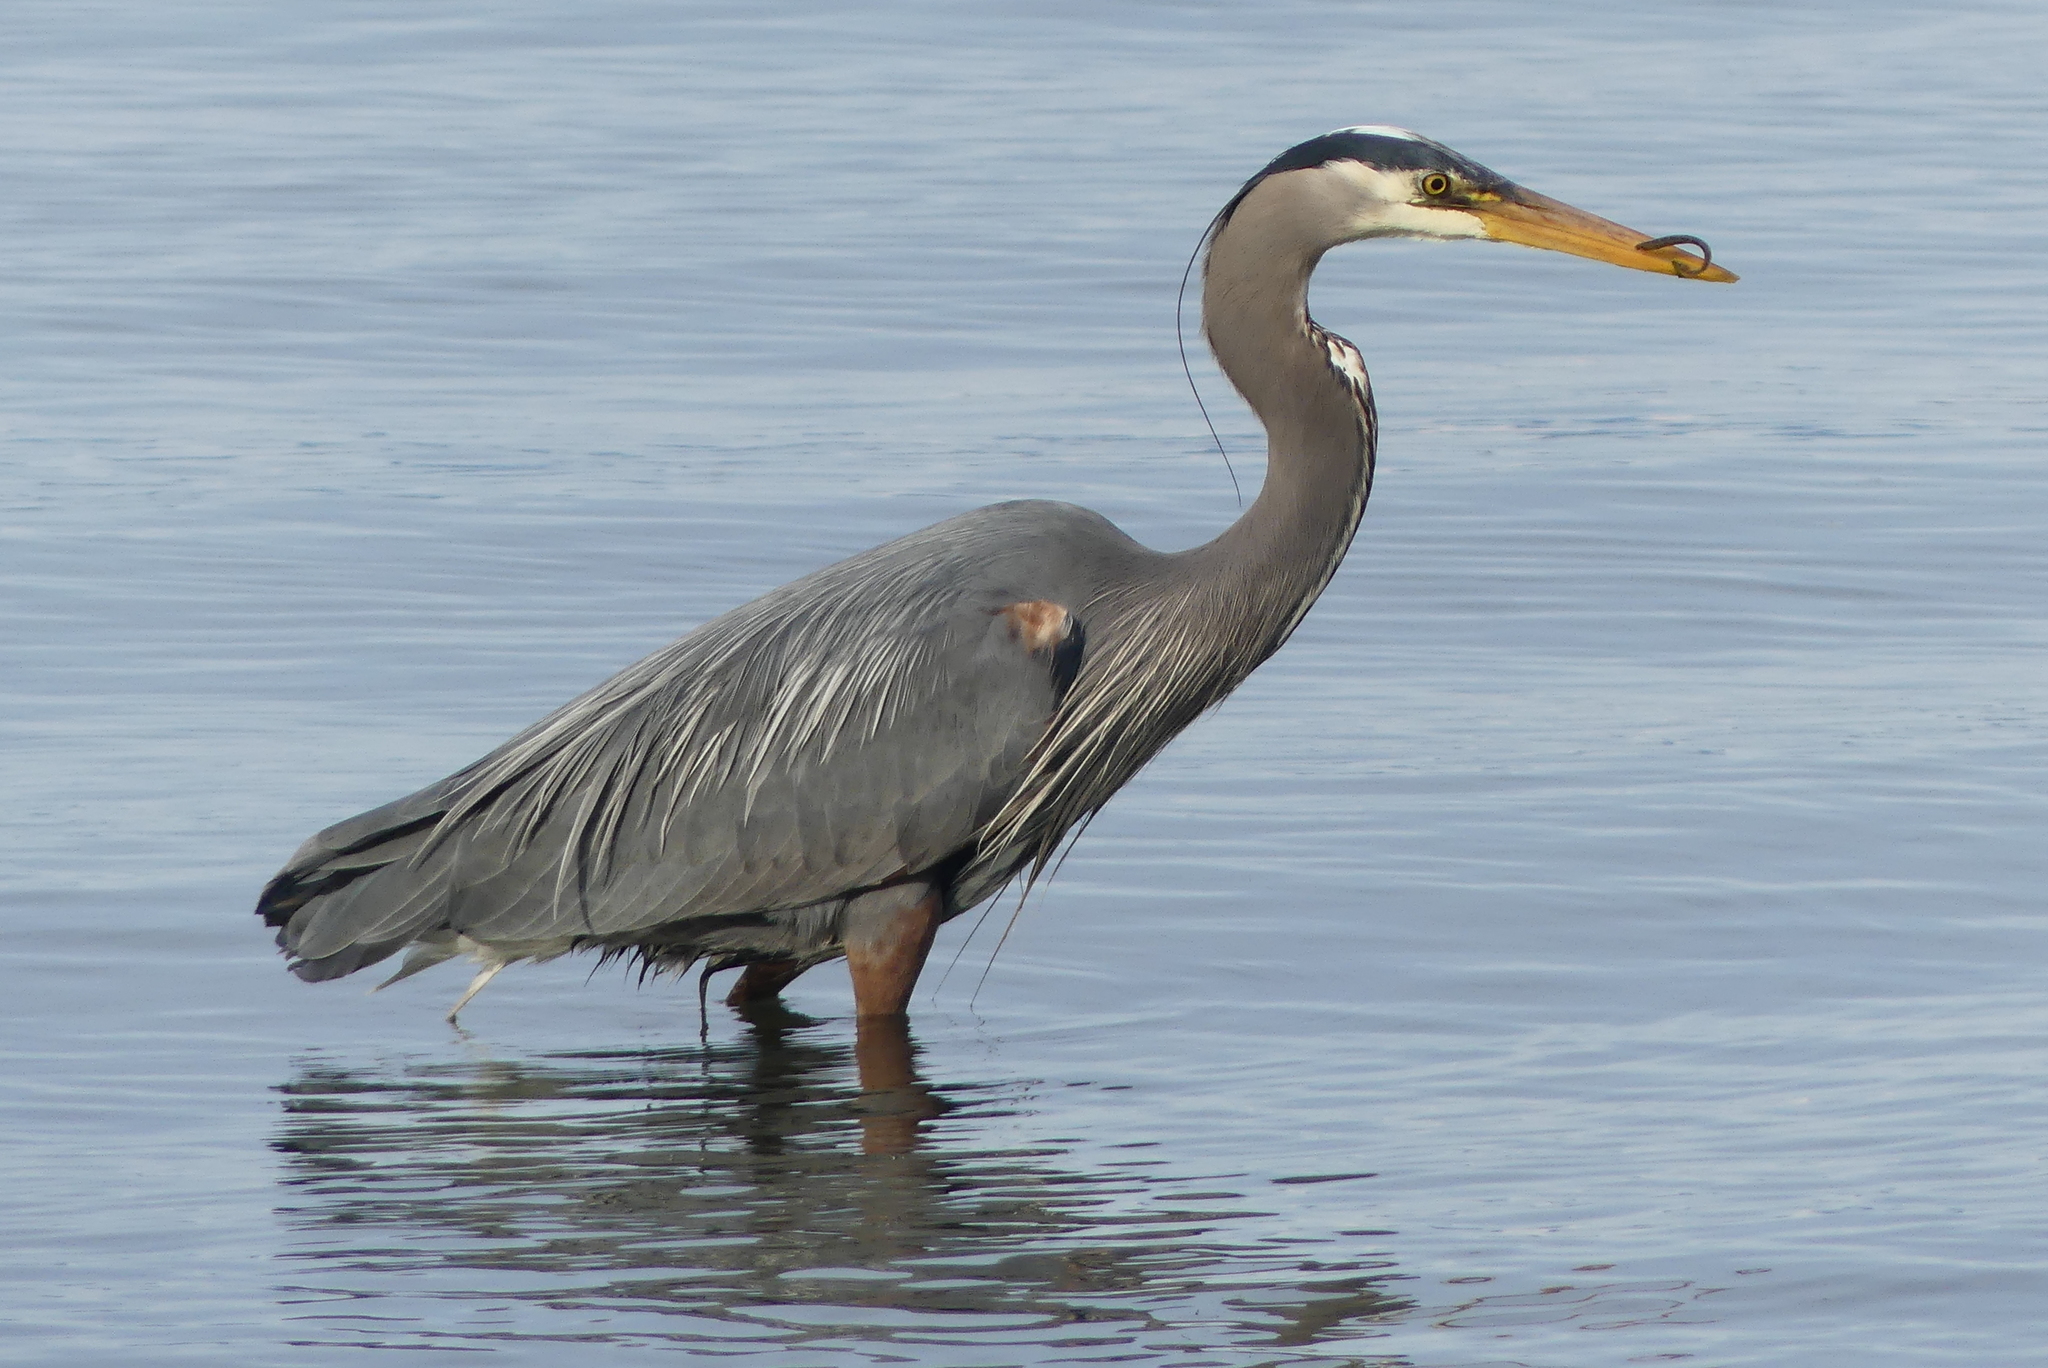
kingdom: Animalia
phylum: Chordata
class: Aves
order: Pelecaniformes
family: Ardeidae
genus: Ardea
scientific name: Ardea herodias
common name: Great blue heron
